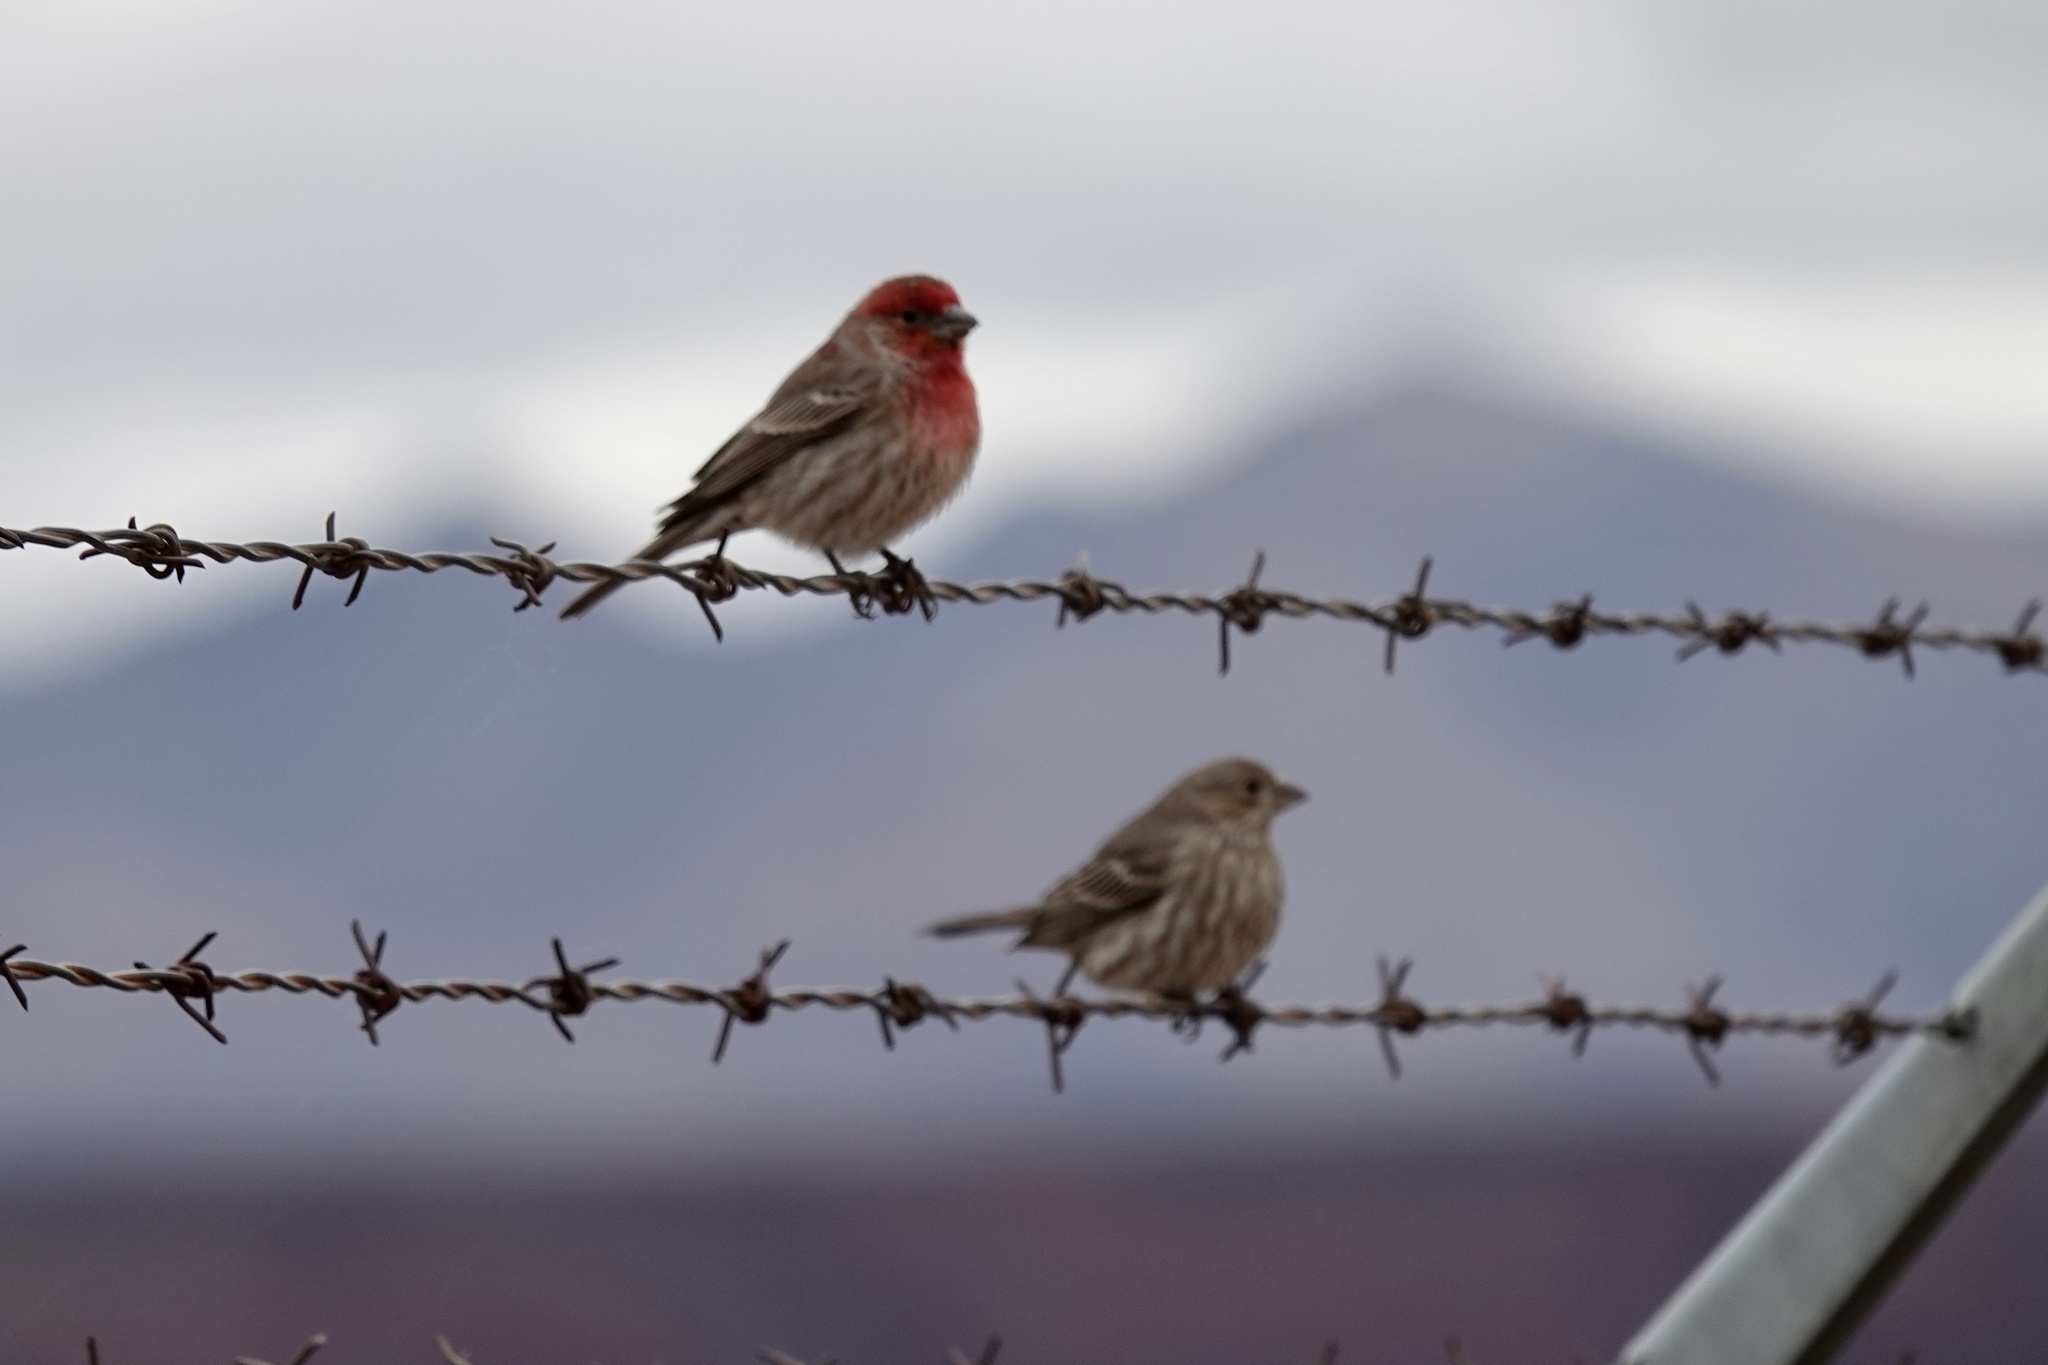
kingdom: Animalia
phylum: Chordata
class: Aves
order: Passeriformes
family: Fringillidae
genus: Haemorhous
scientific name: Haemorhous mexicanus
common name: House finch
